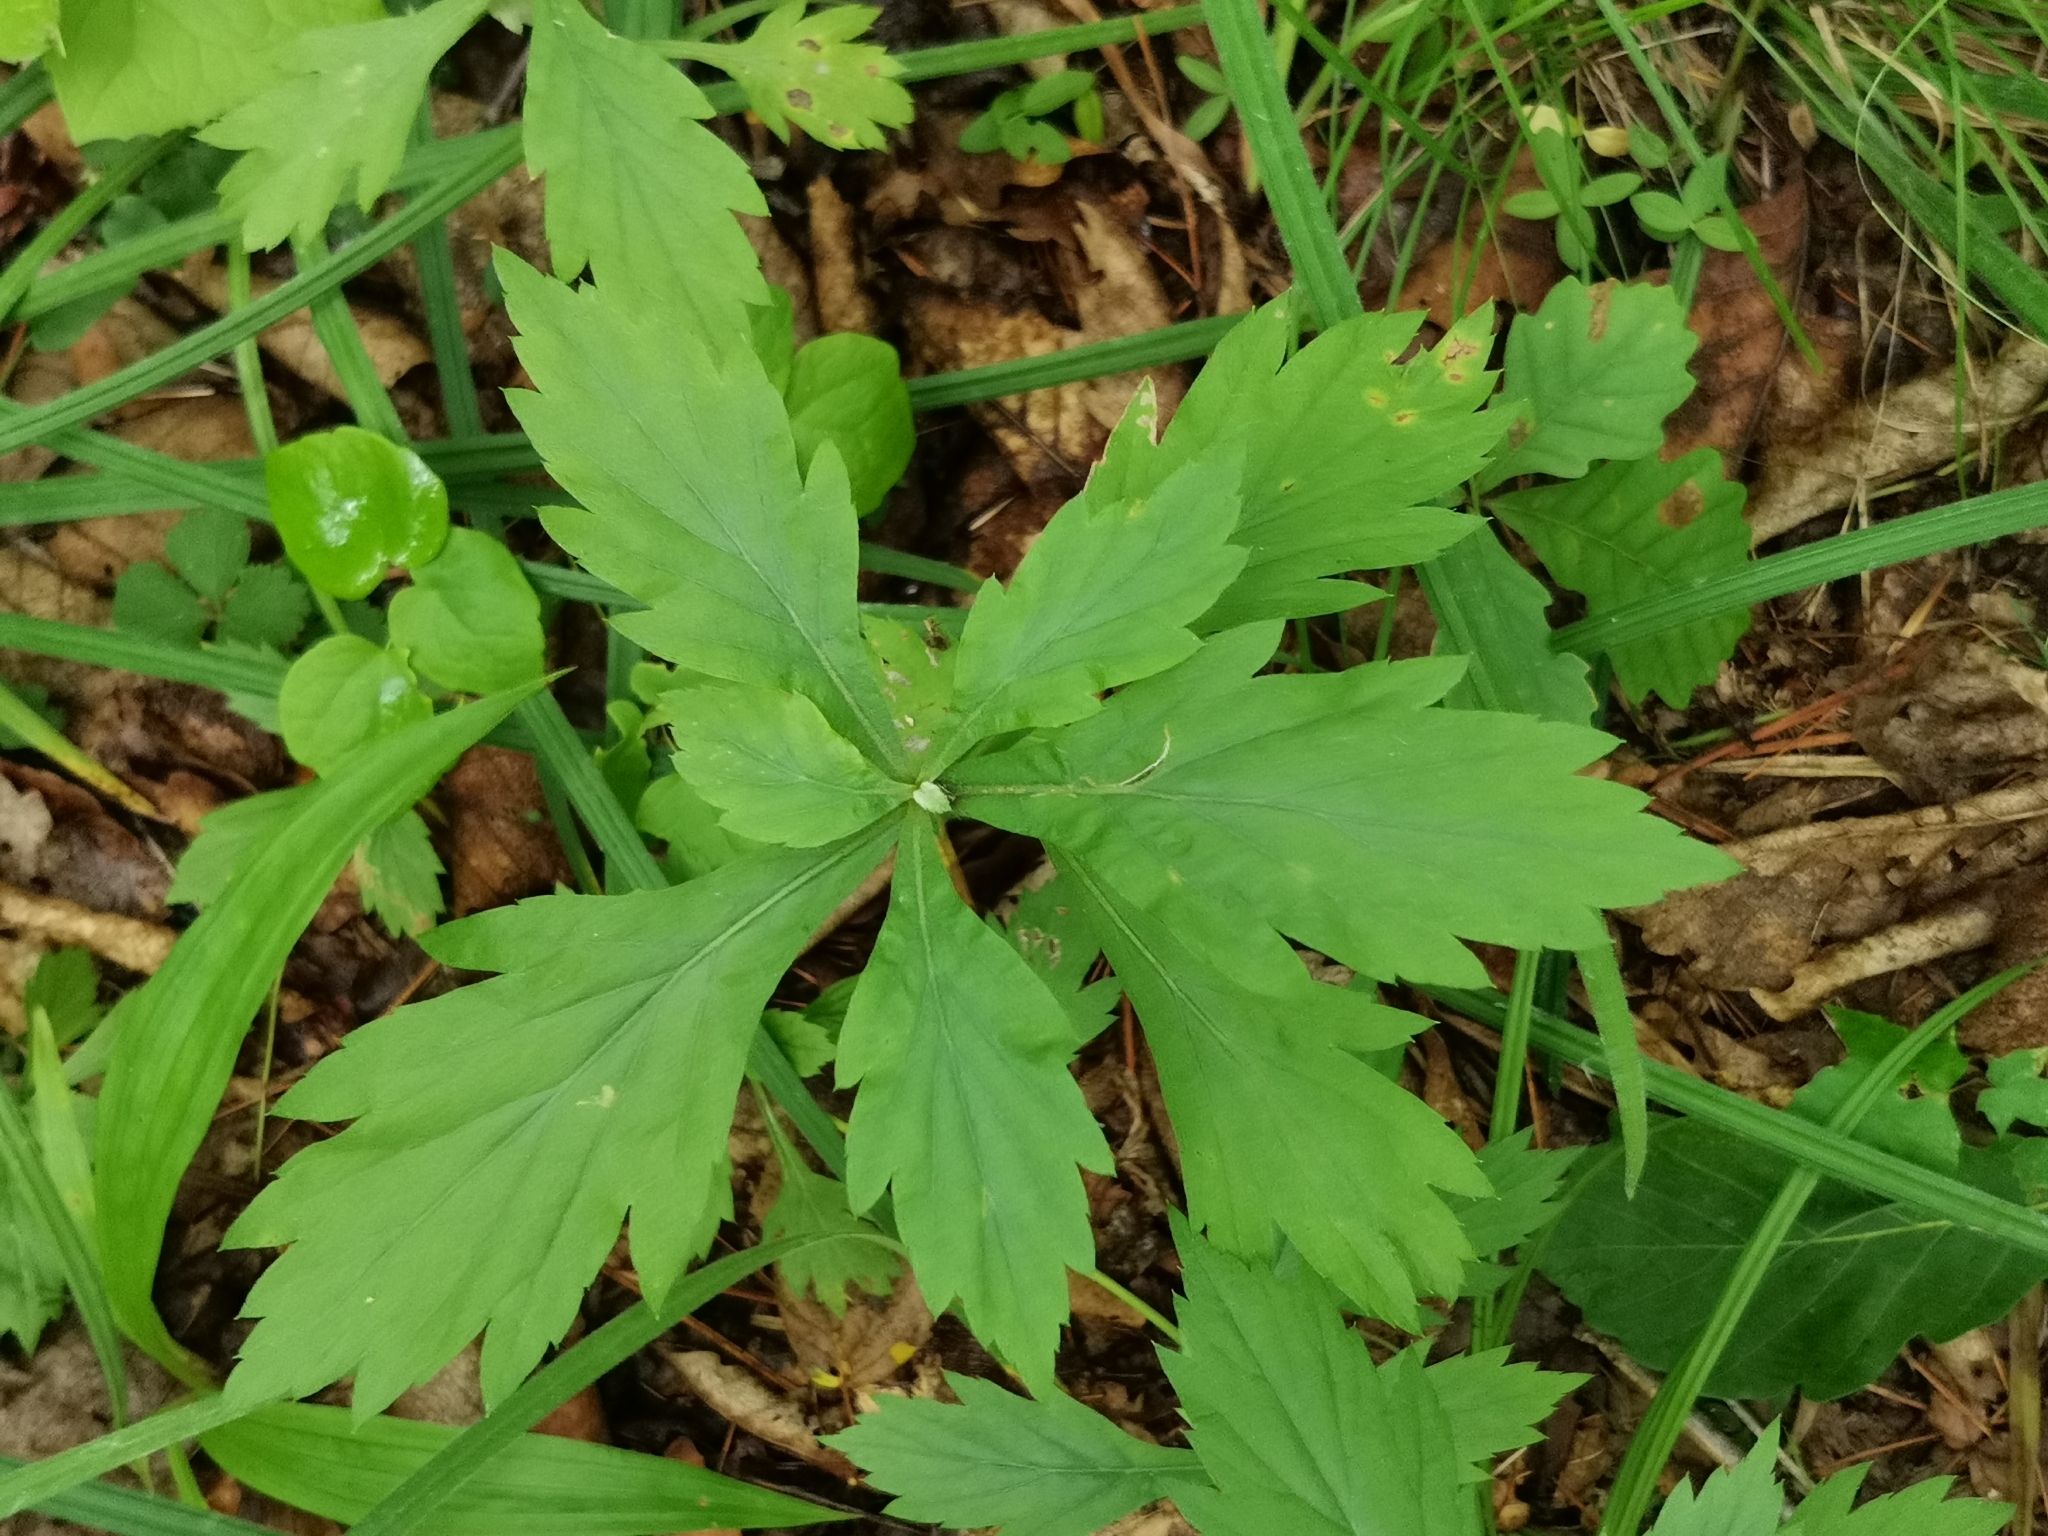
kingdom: Plantae
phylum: Tracheophyta
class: Magnoliopsida
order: Asterales
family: Asteraceae
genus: Artemisia
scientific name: Artemisia stolonifera
